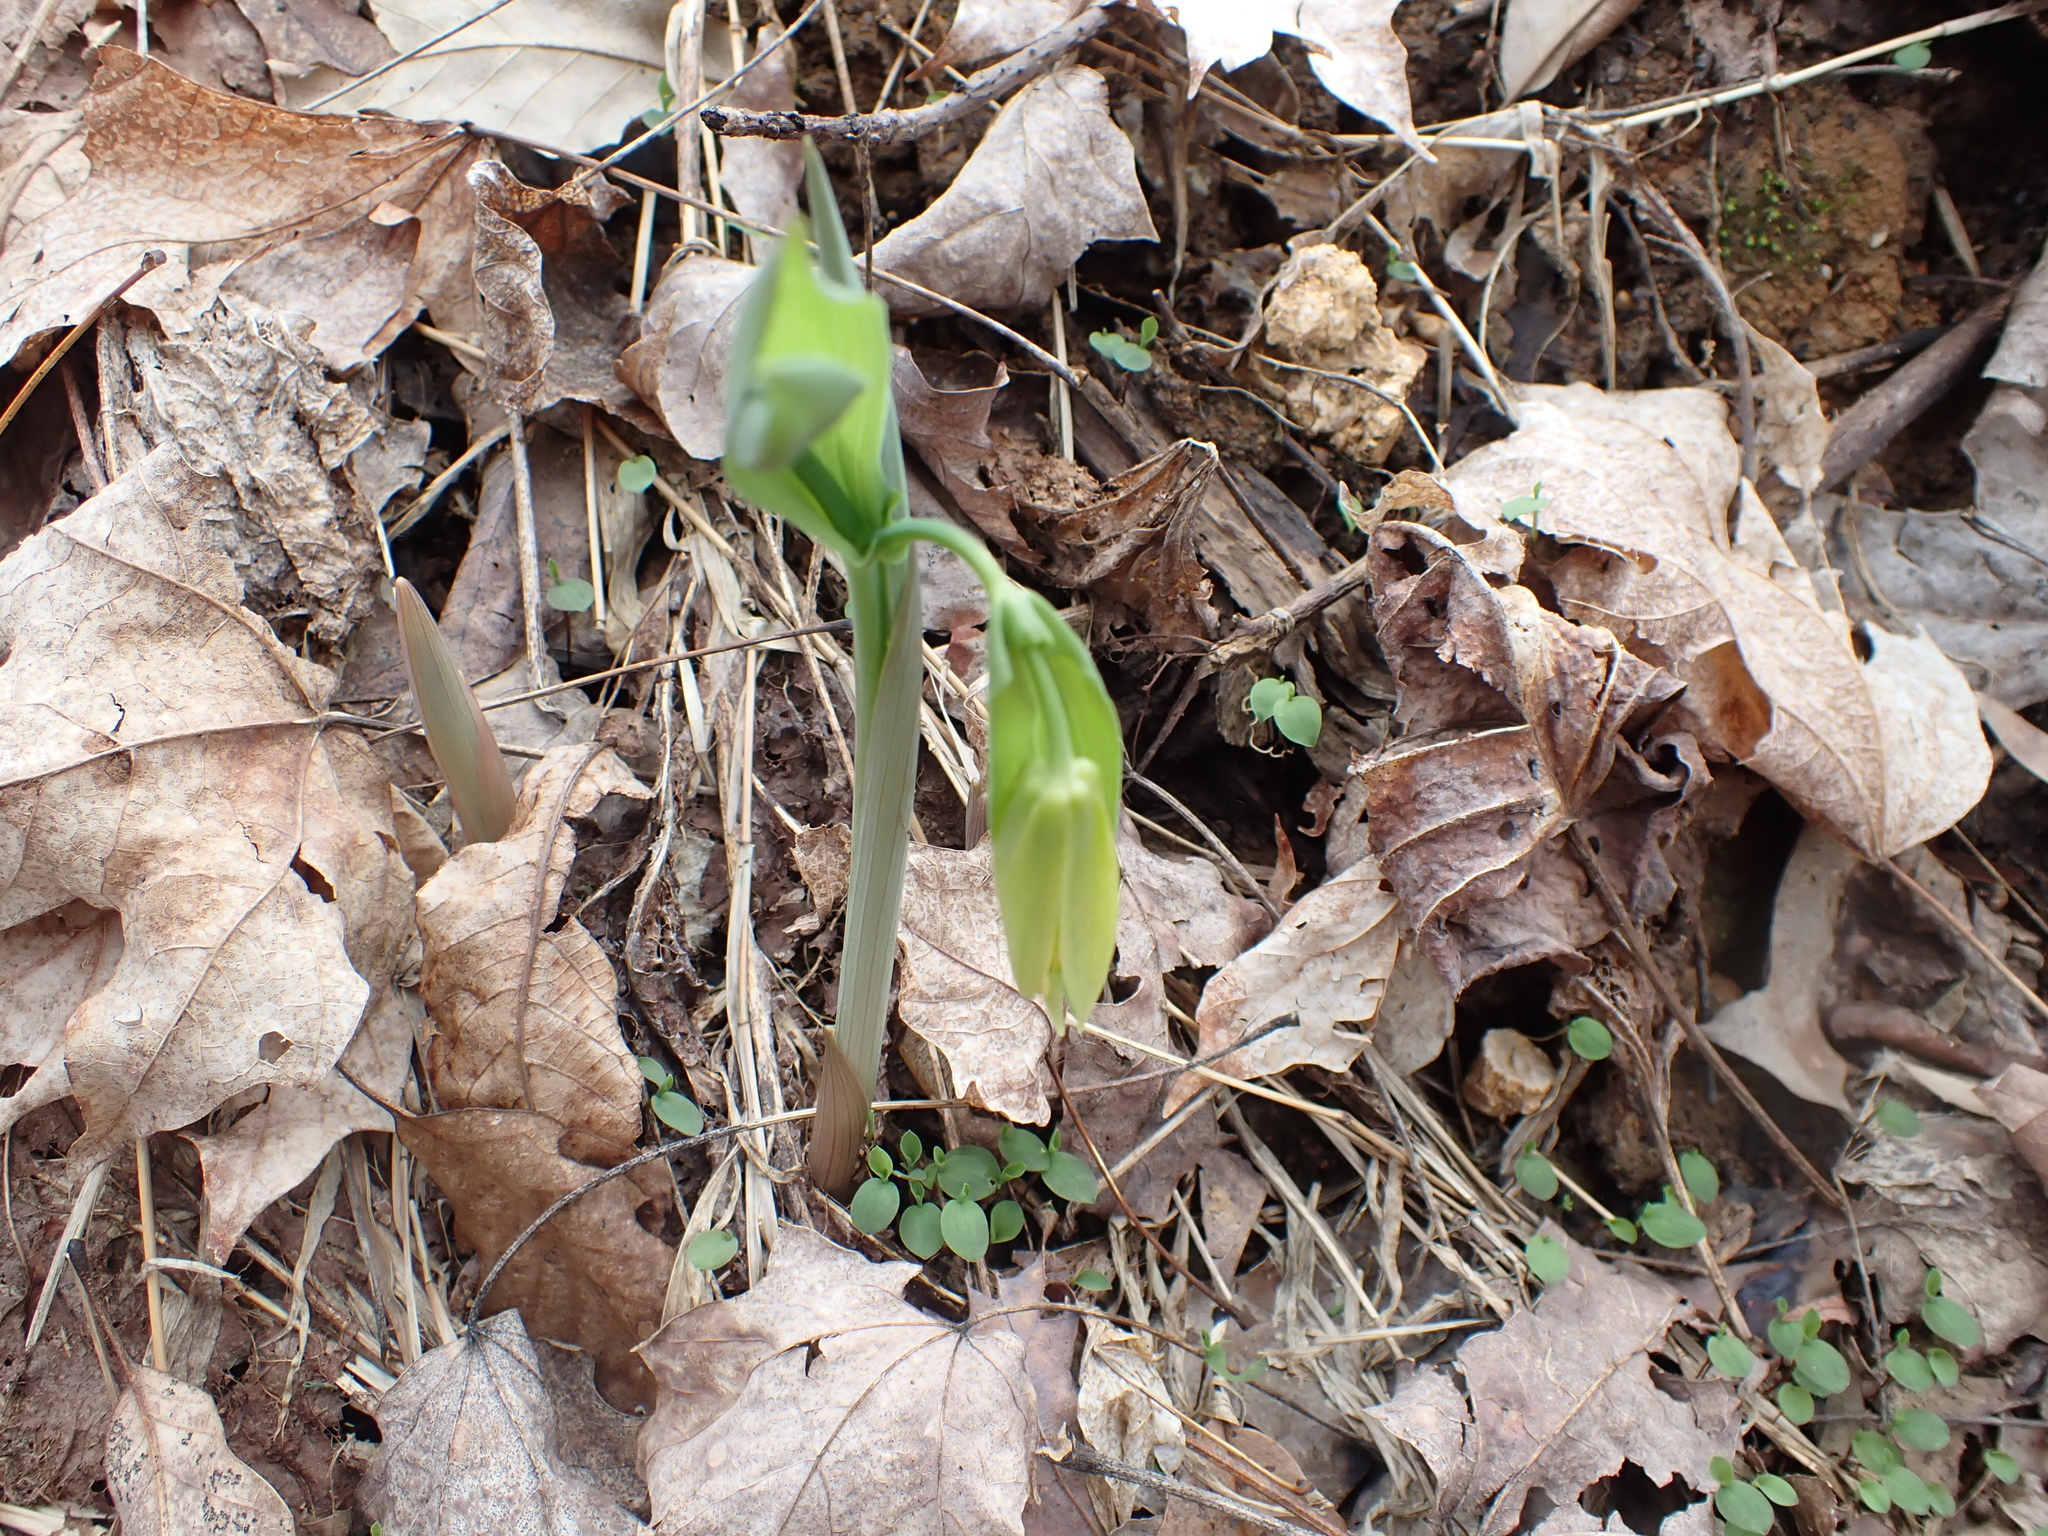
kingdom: Plantae
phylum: Tracheophyta
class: Liliopsida
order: Liliales
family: Colchicaceae
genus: Uvularia
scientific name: Uvularia grandiflora
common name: Bellwort
